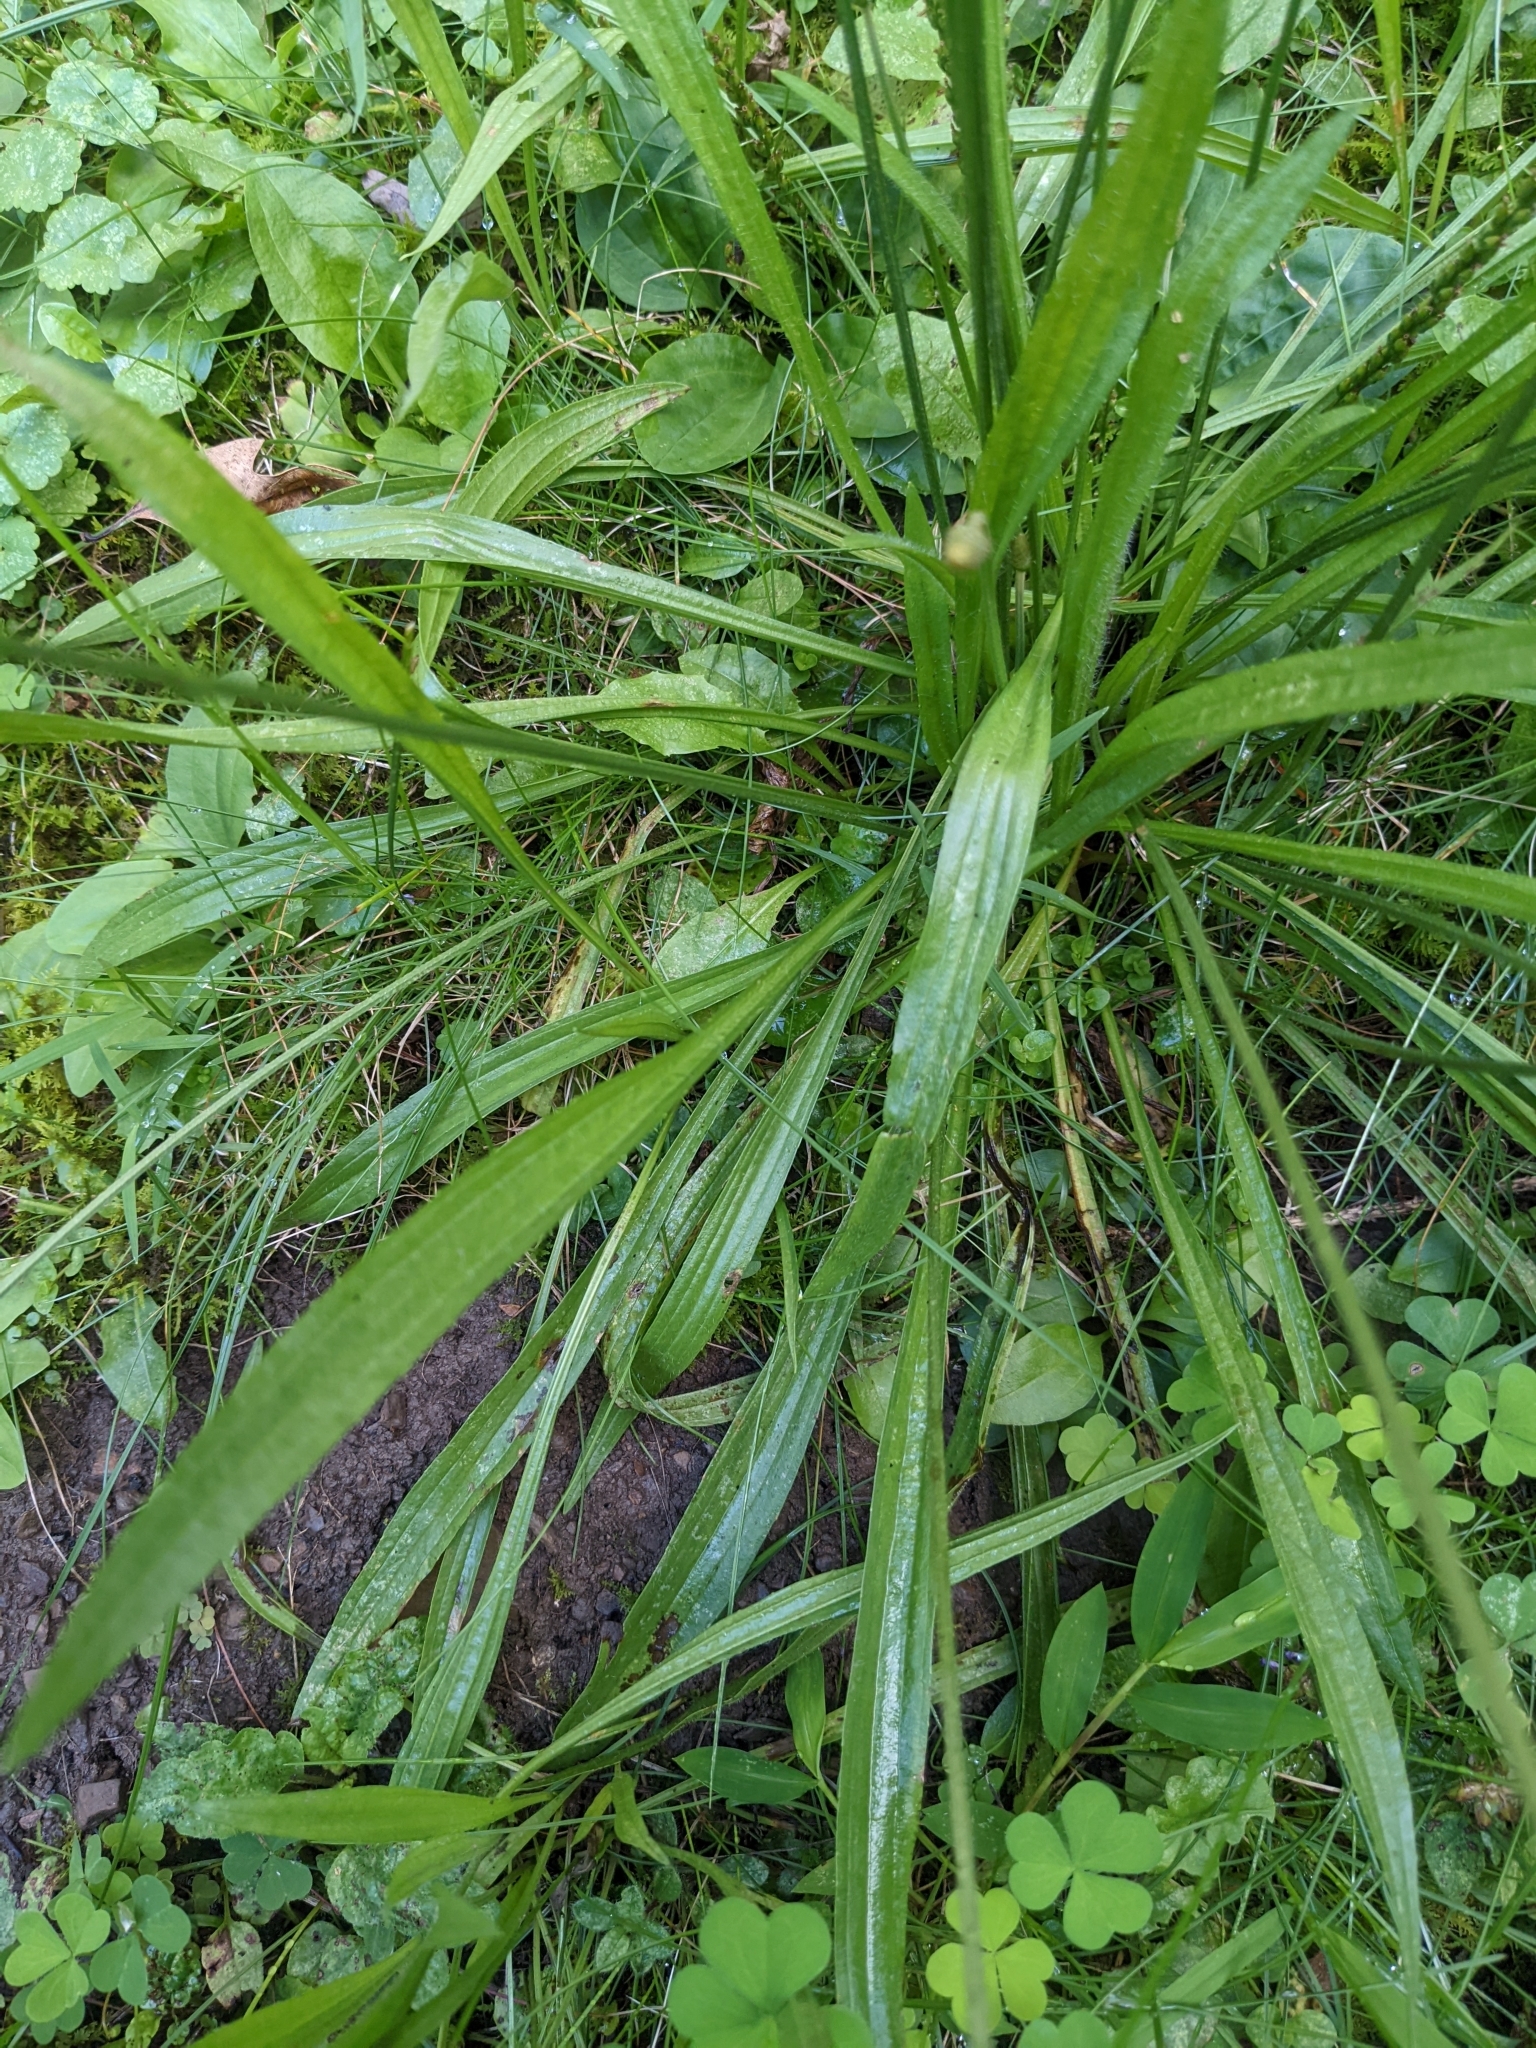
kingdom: Plantae
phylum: Tracheophyta
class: Magnoliopsida
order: Lamiales
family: Plantaginaceae
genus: Plantago
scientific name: Plantago lanceolata
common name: Ribwort plantain
